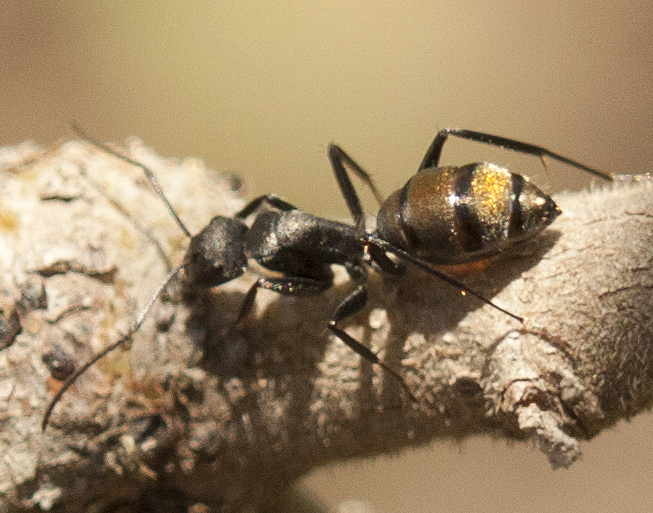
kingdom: Animalia
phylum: Arthropoda
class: Insecta
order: Hymenoptera
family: Formicidae
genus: Camponotus
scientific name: Camponotus aeneopilosus
